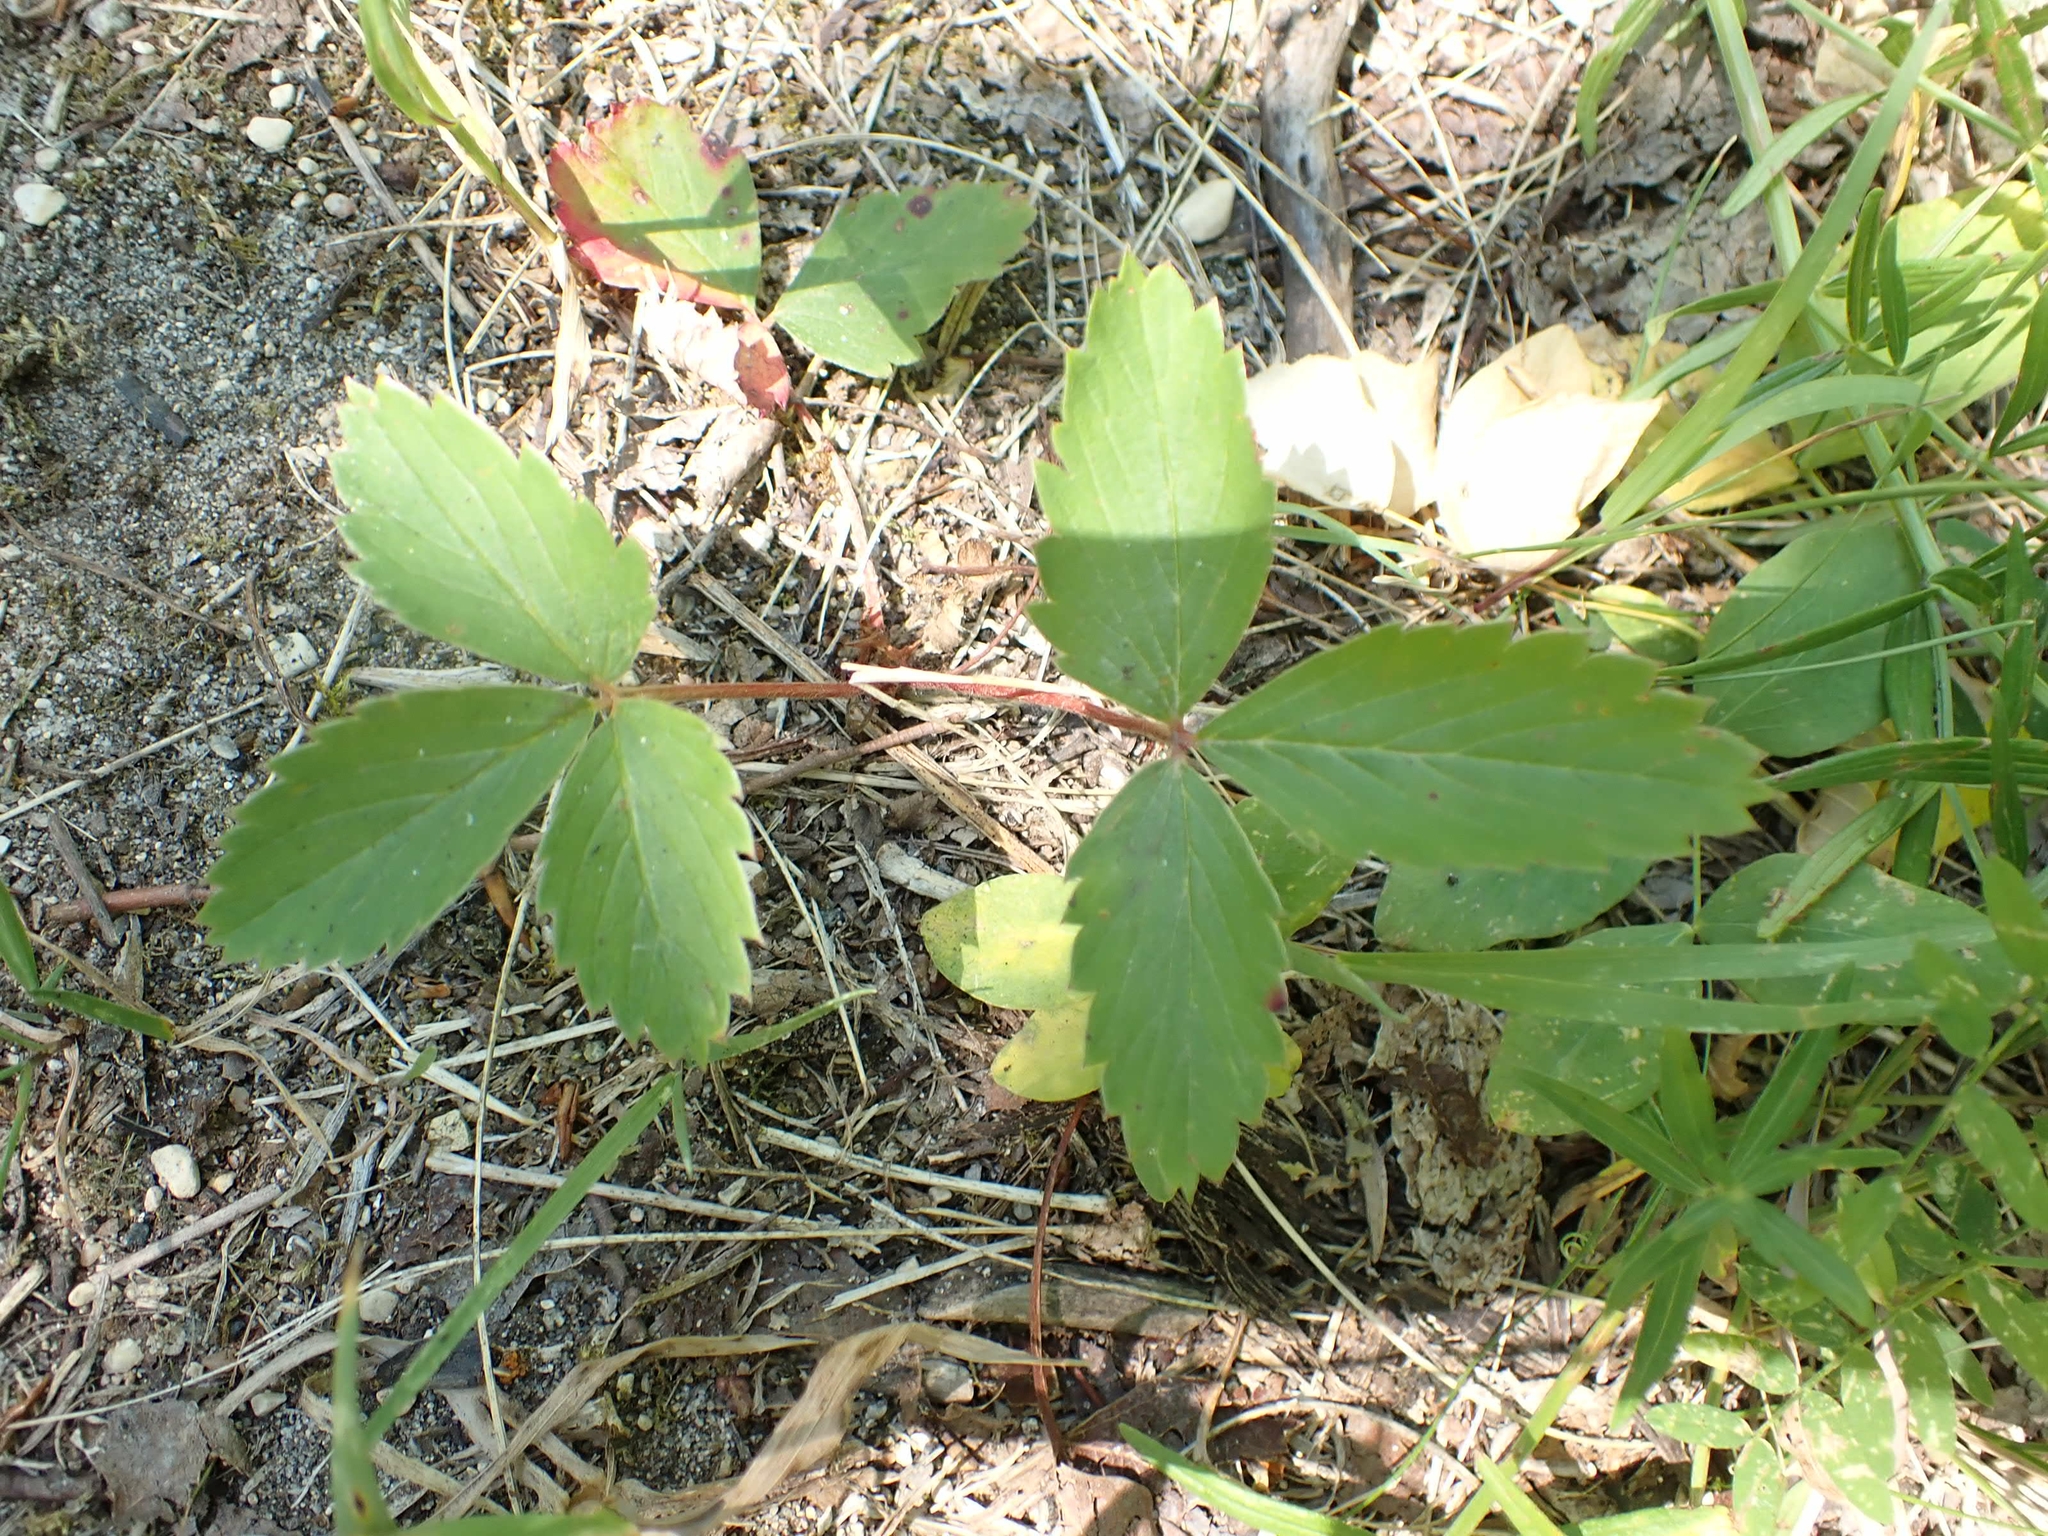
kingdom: Plantae
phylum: Tracheophyta
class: Magnoliopsida
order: Rosales
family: Rosaceae
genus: Fragaria
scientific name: Fragaria virginiana
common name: Thickleaved wild strawberry
